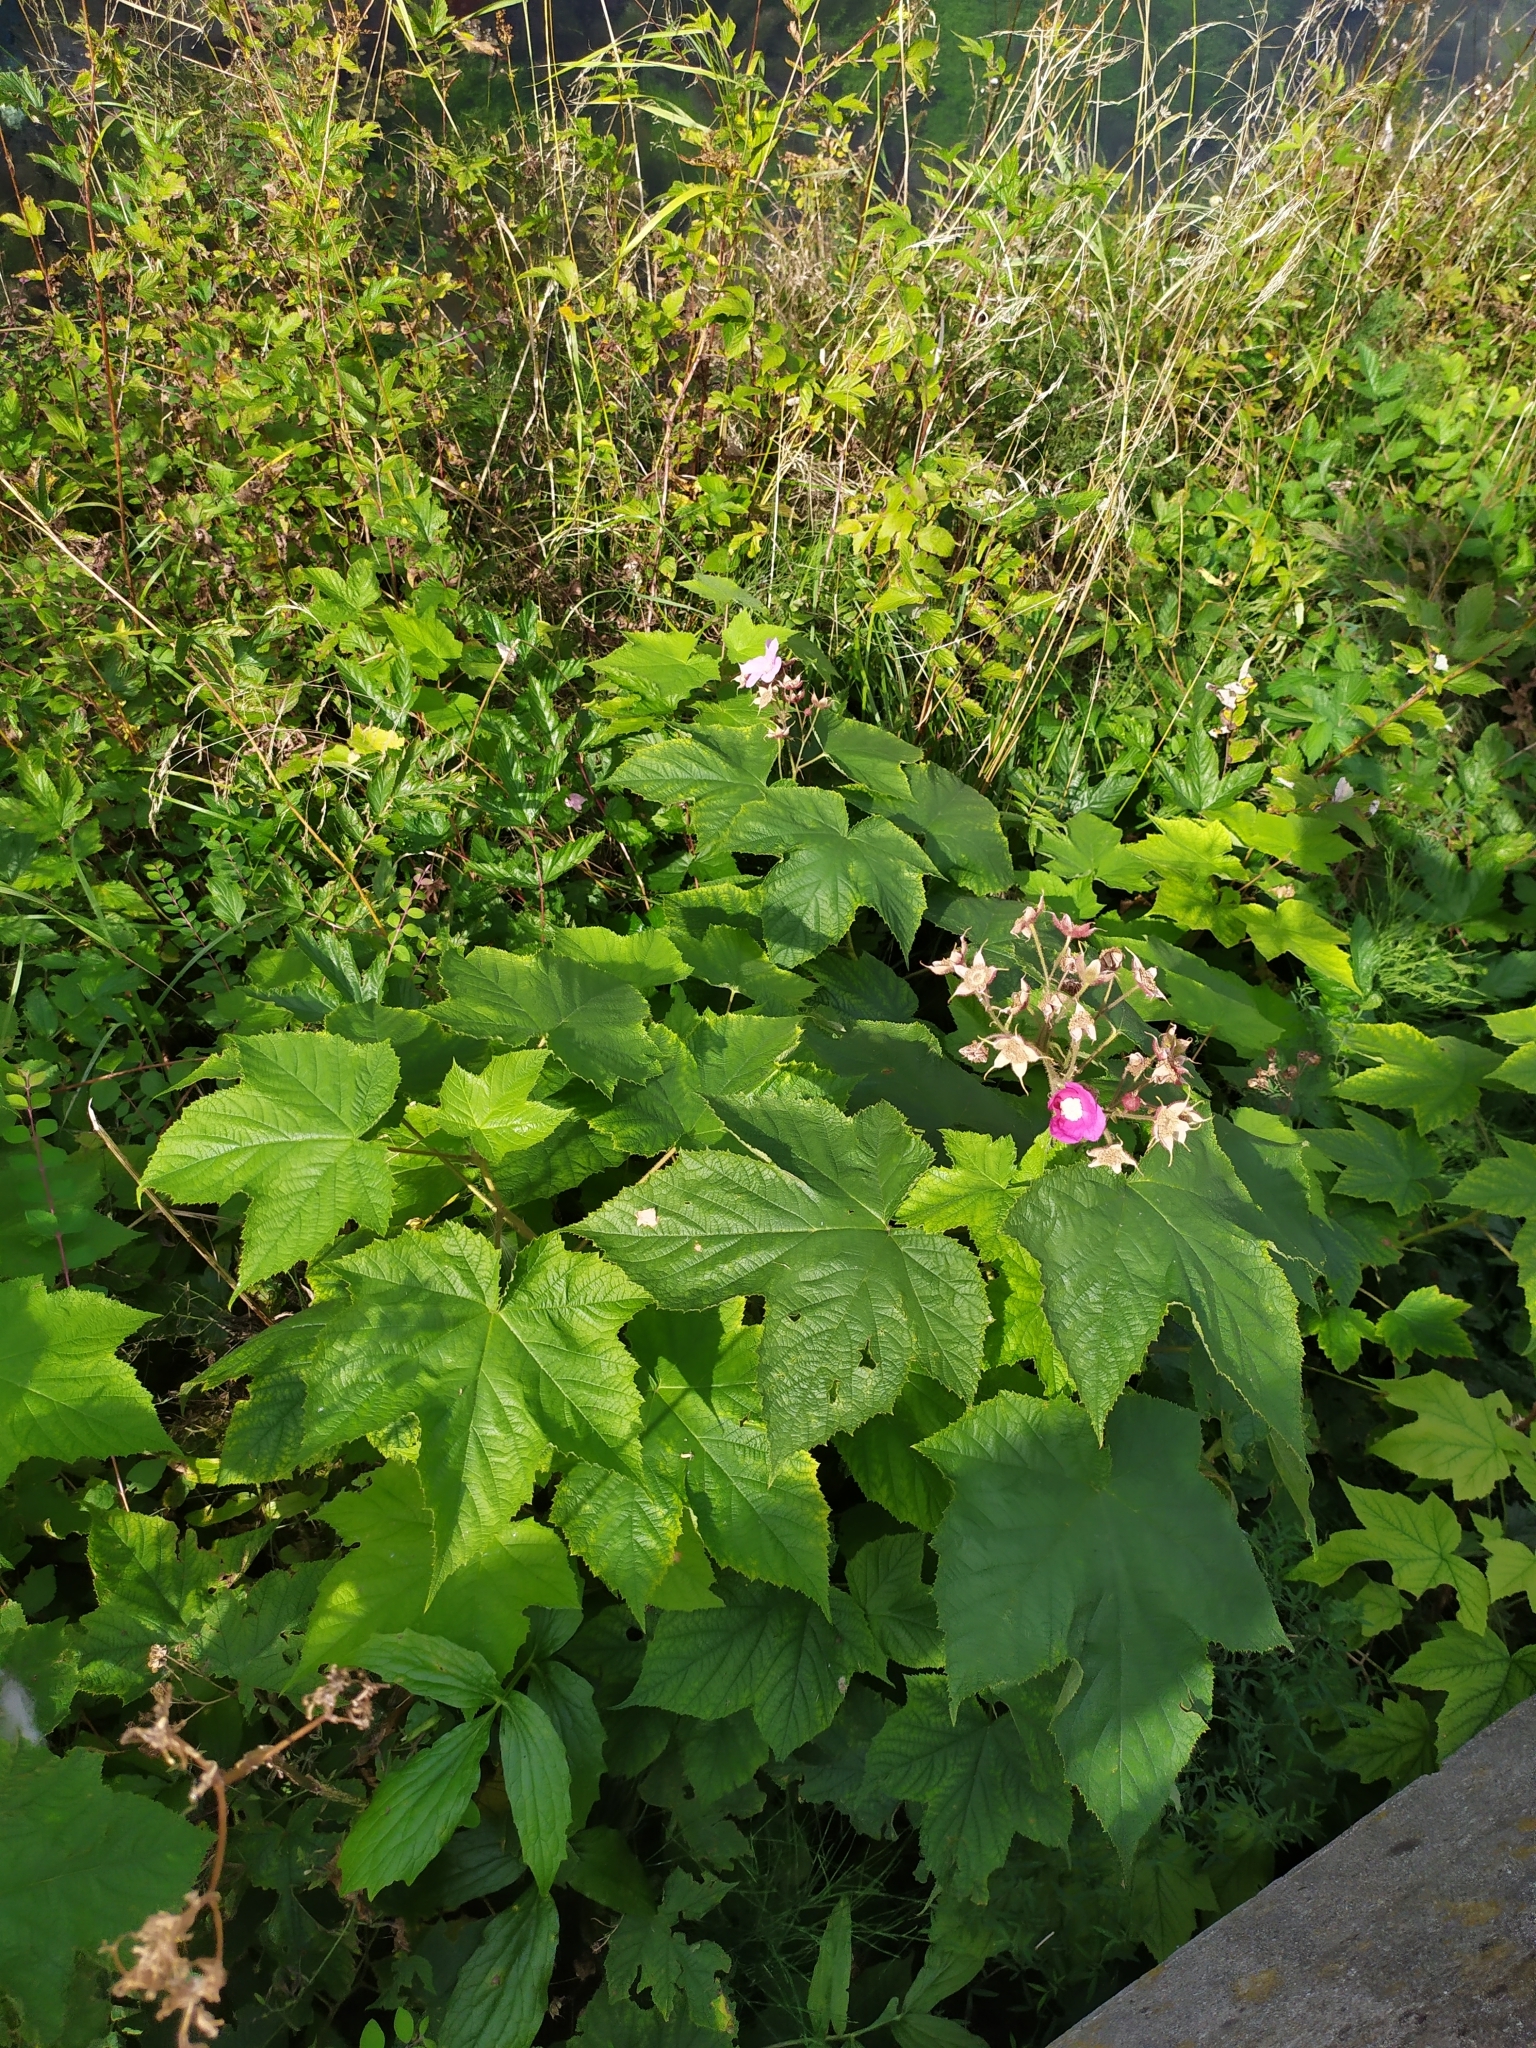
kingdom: Plantae
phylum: Tracheophyta
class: Magnoliopsida
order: Rosales
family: Rosaceae
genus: Rubus
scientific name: Rubus odoratus
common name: Purple-flowered raspberry
